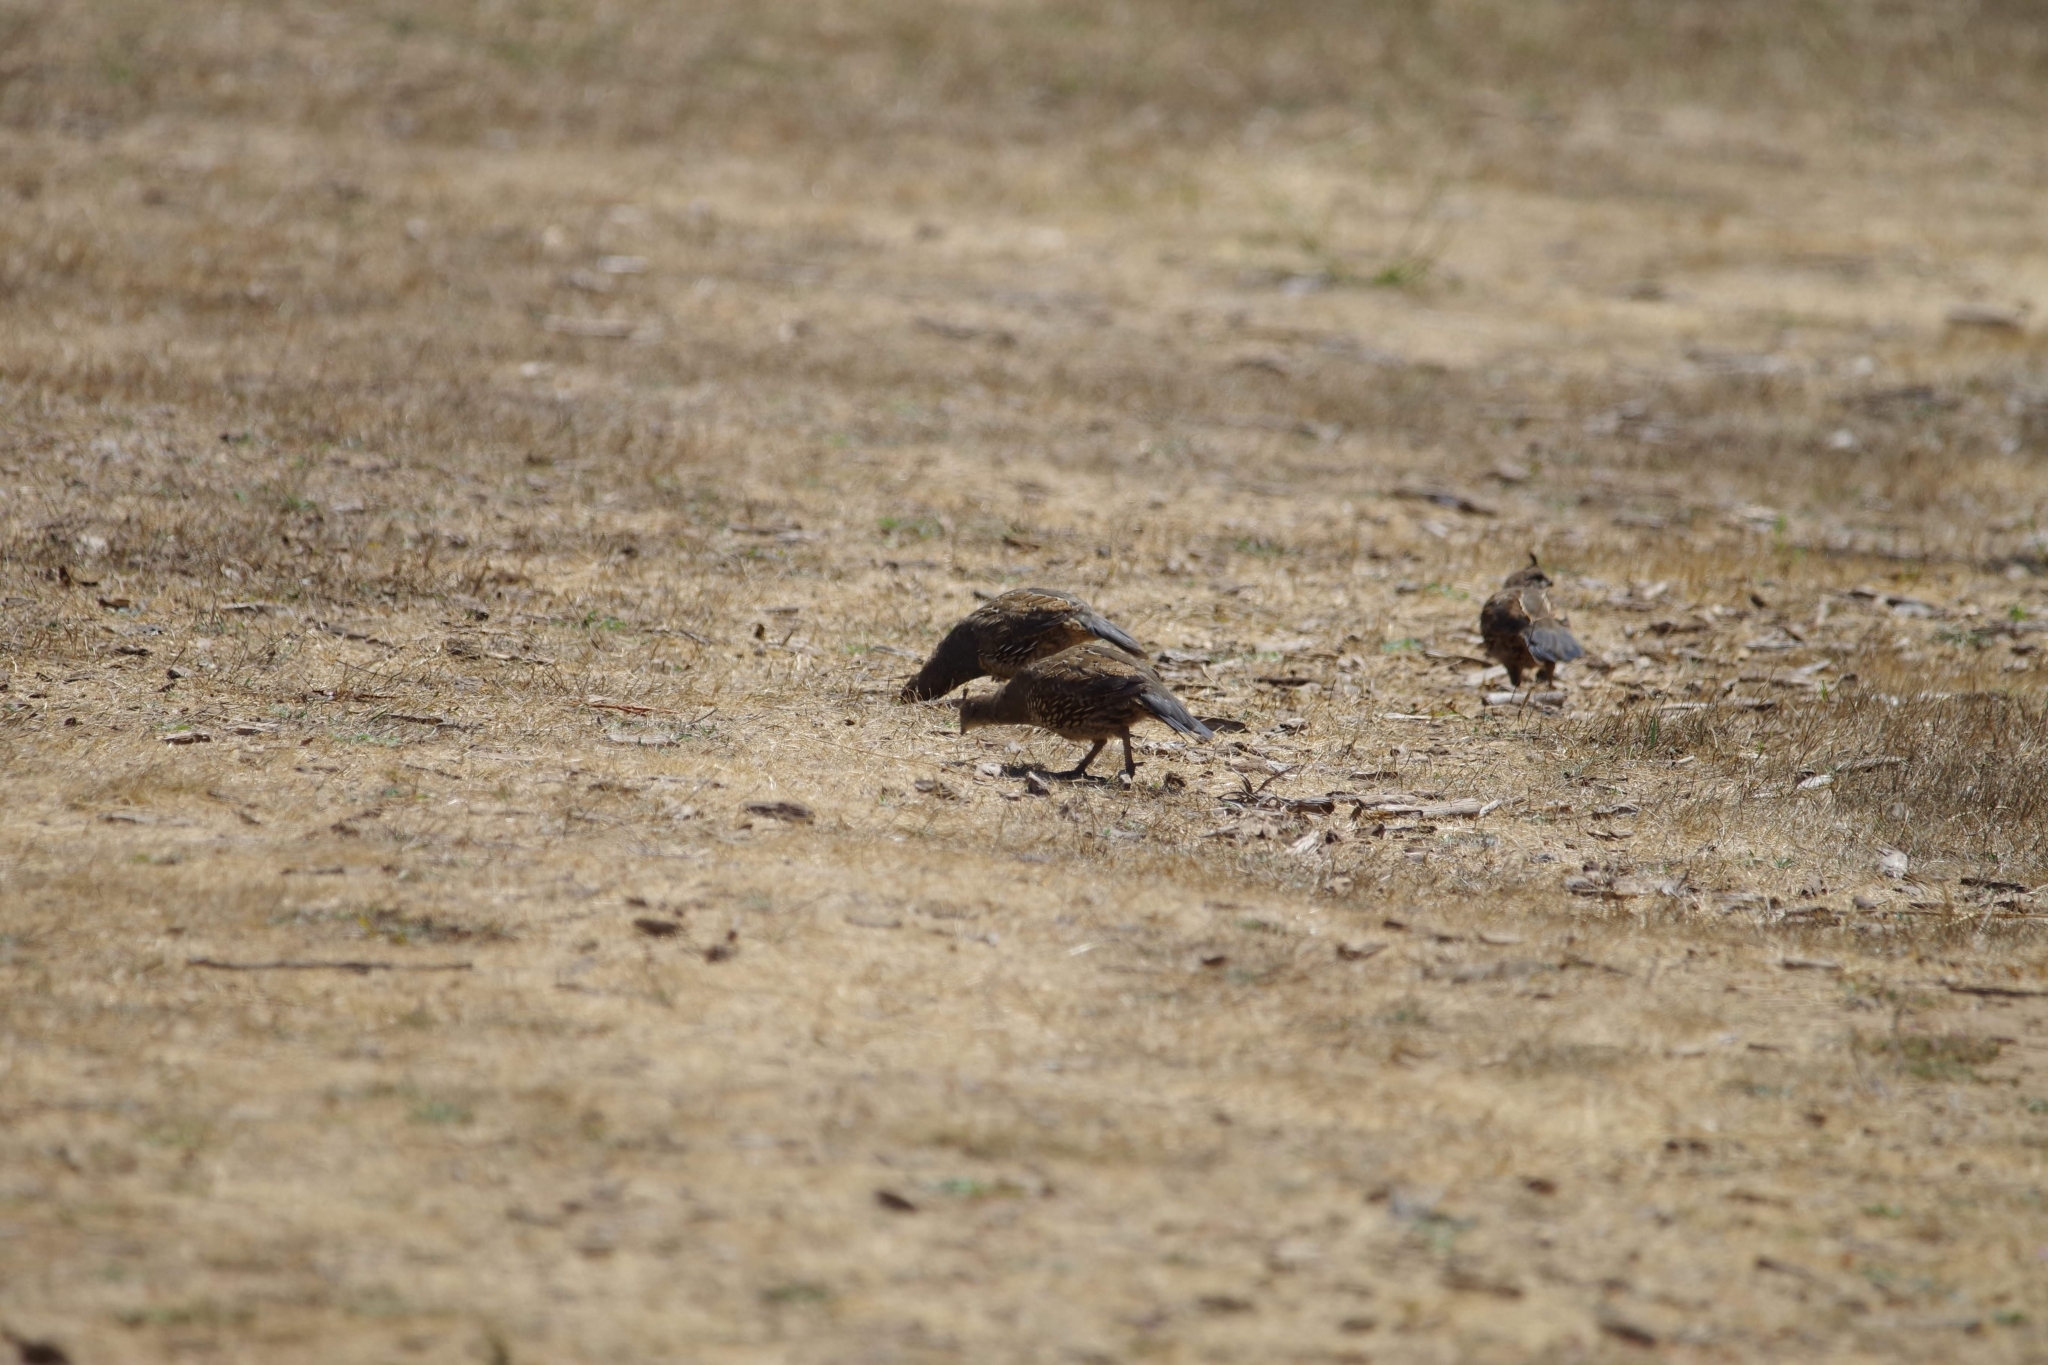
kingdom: Animalia
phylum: Chordata
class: Aves
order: Galliformes
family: Odontophoridae
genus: Callipepla
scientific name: Callipepla californica
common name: California quail
